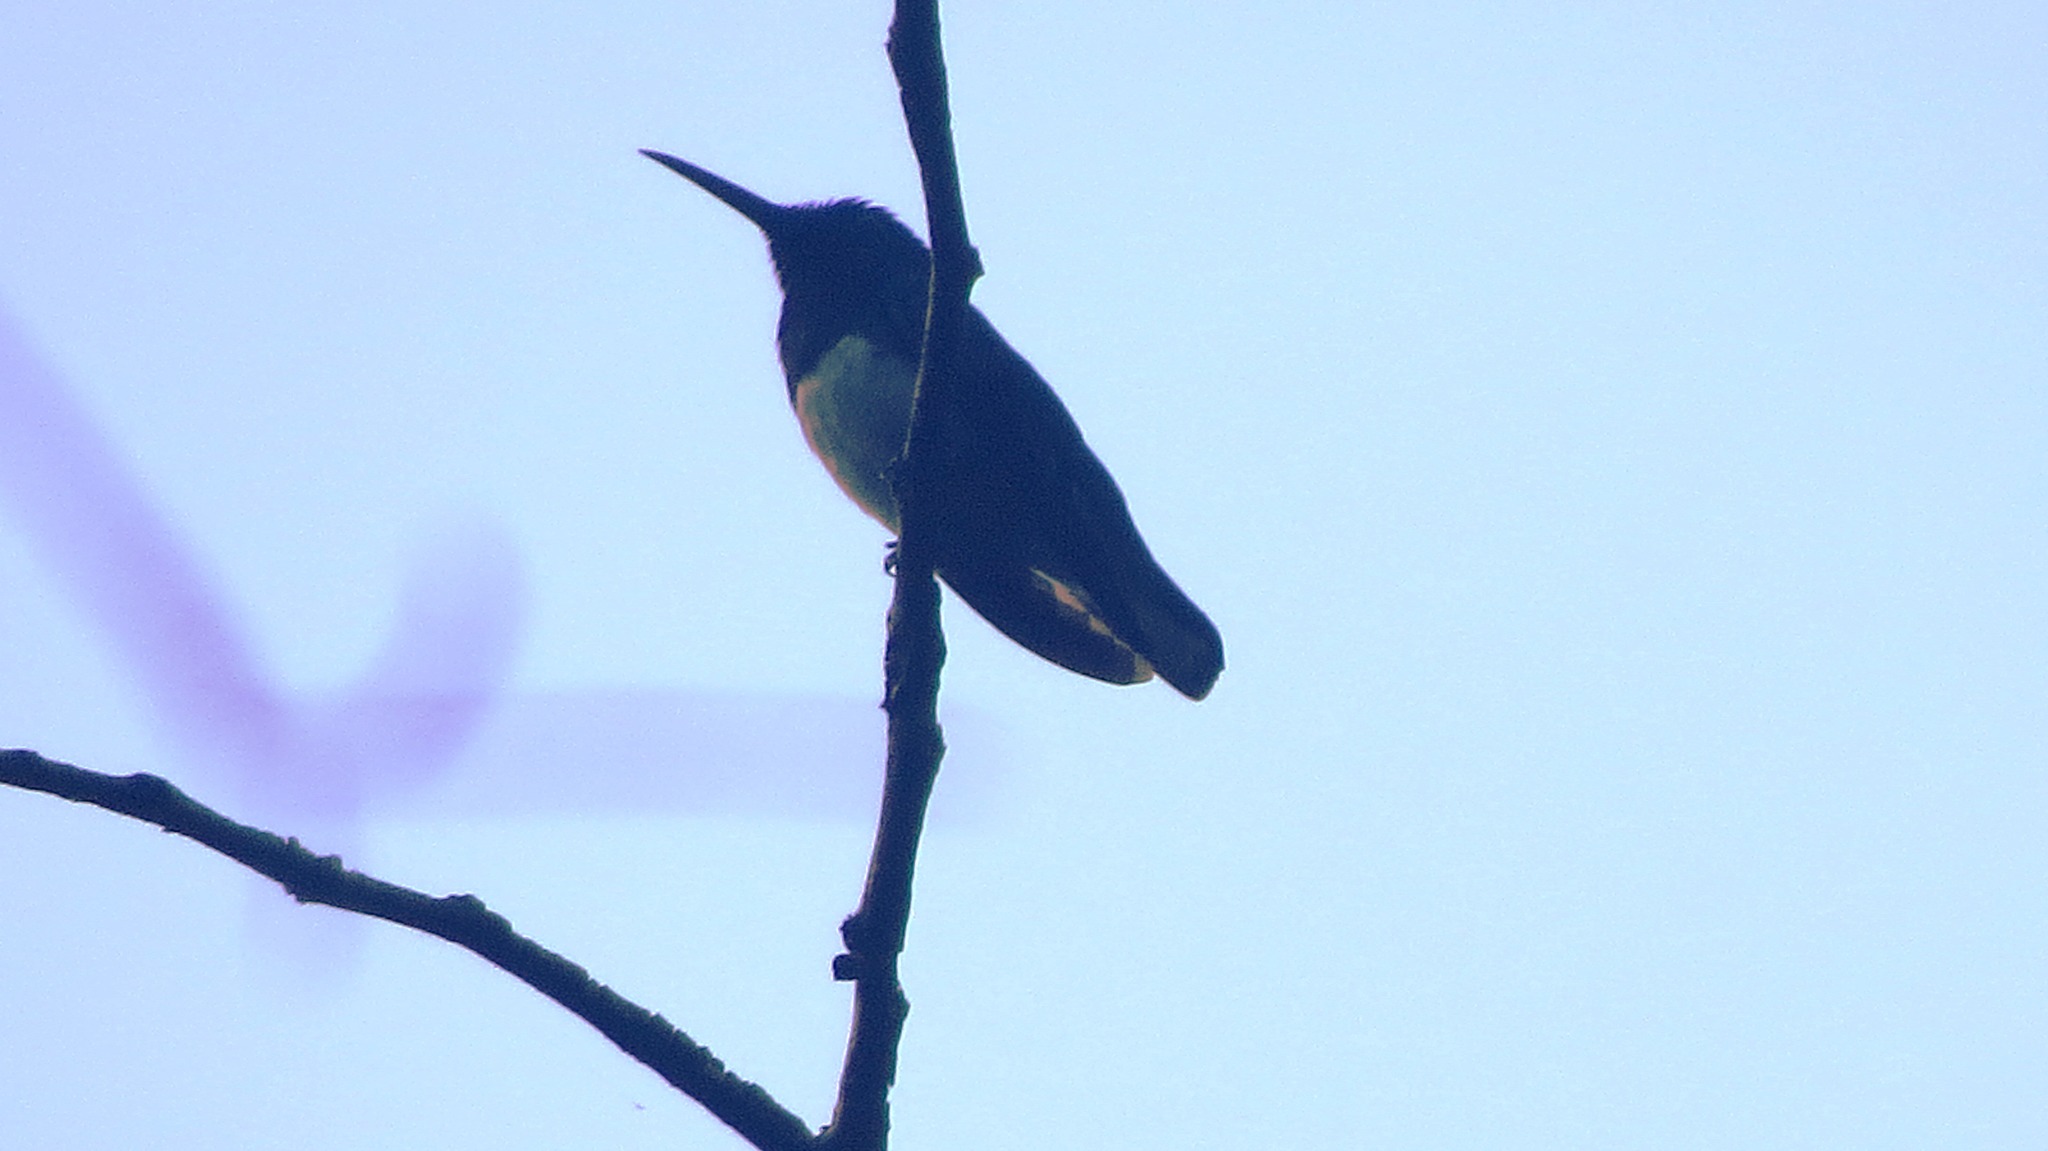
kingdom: Animalia
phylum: Chordata
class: Aves
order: Apodiformes
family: Trochilidae
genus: Florisuga
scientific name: Florisuga mellivora
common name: White-necked jacobin
